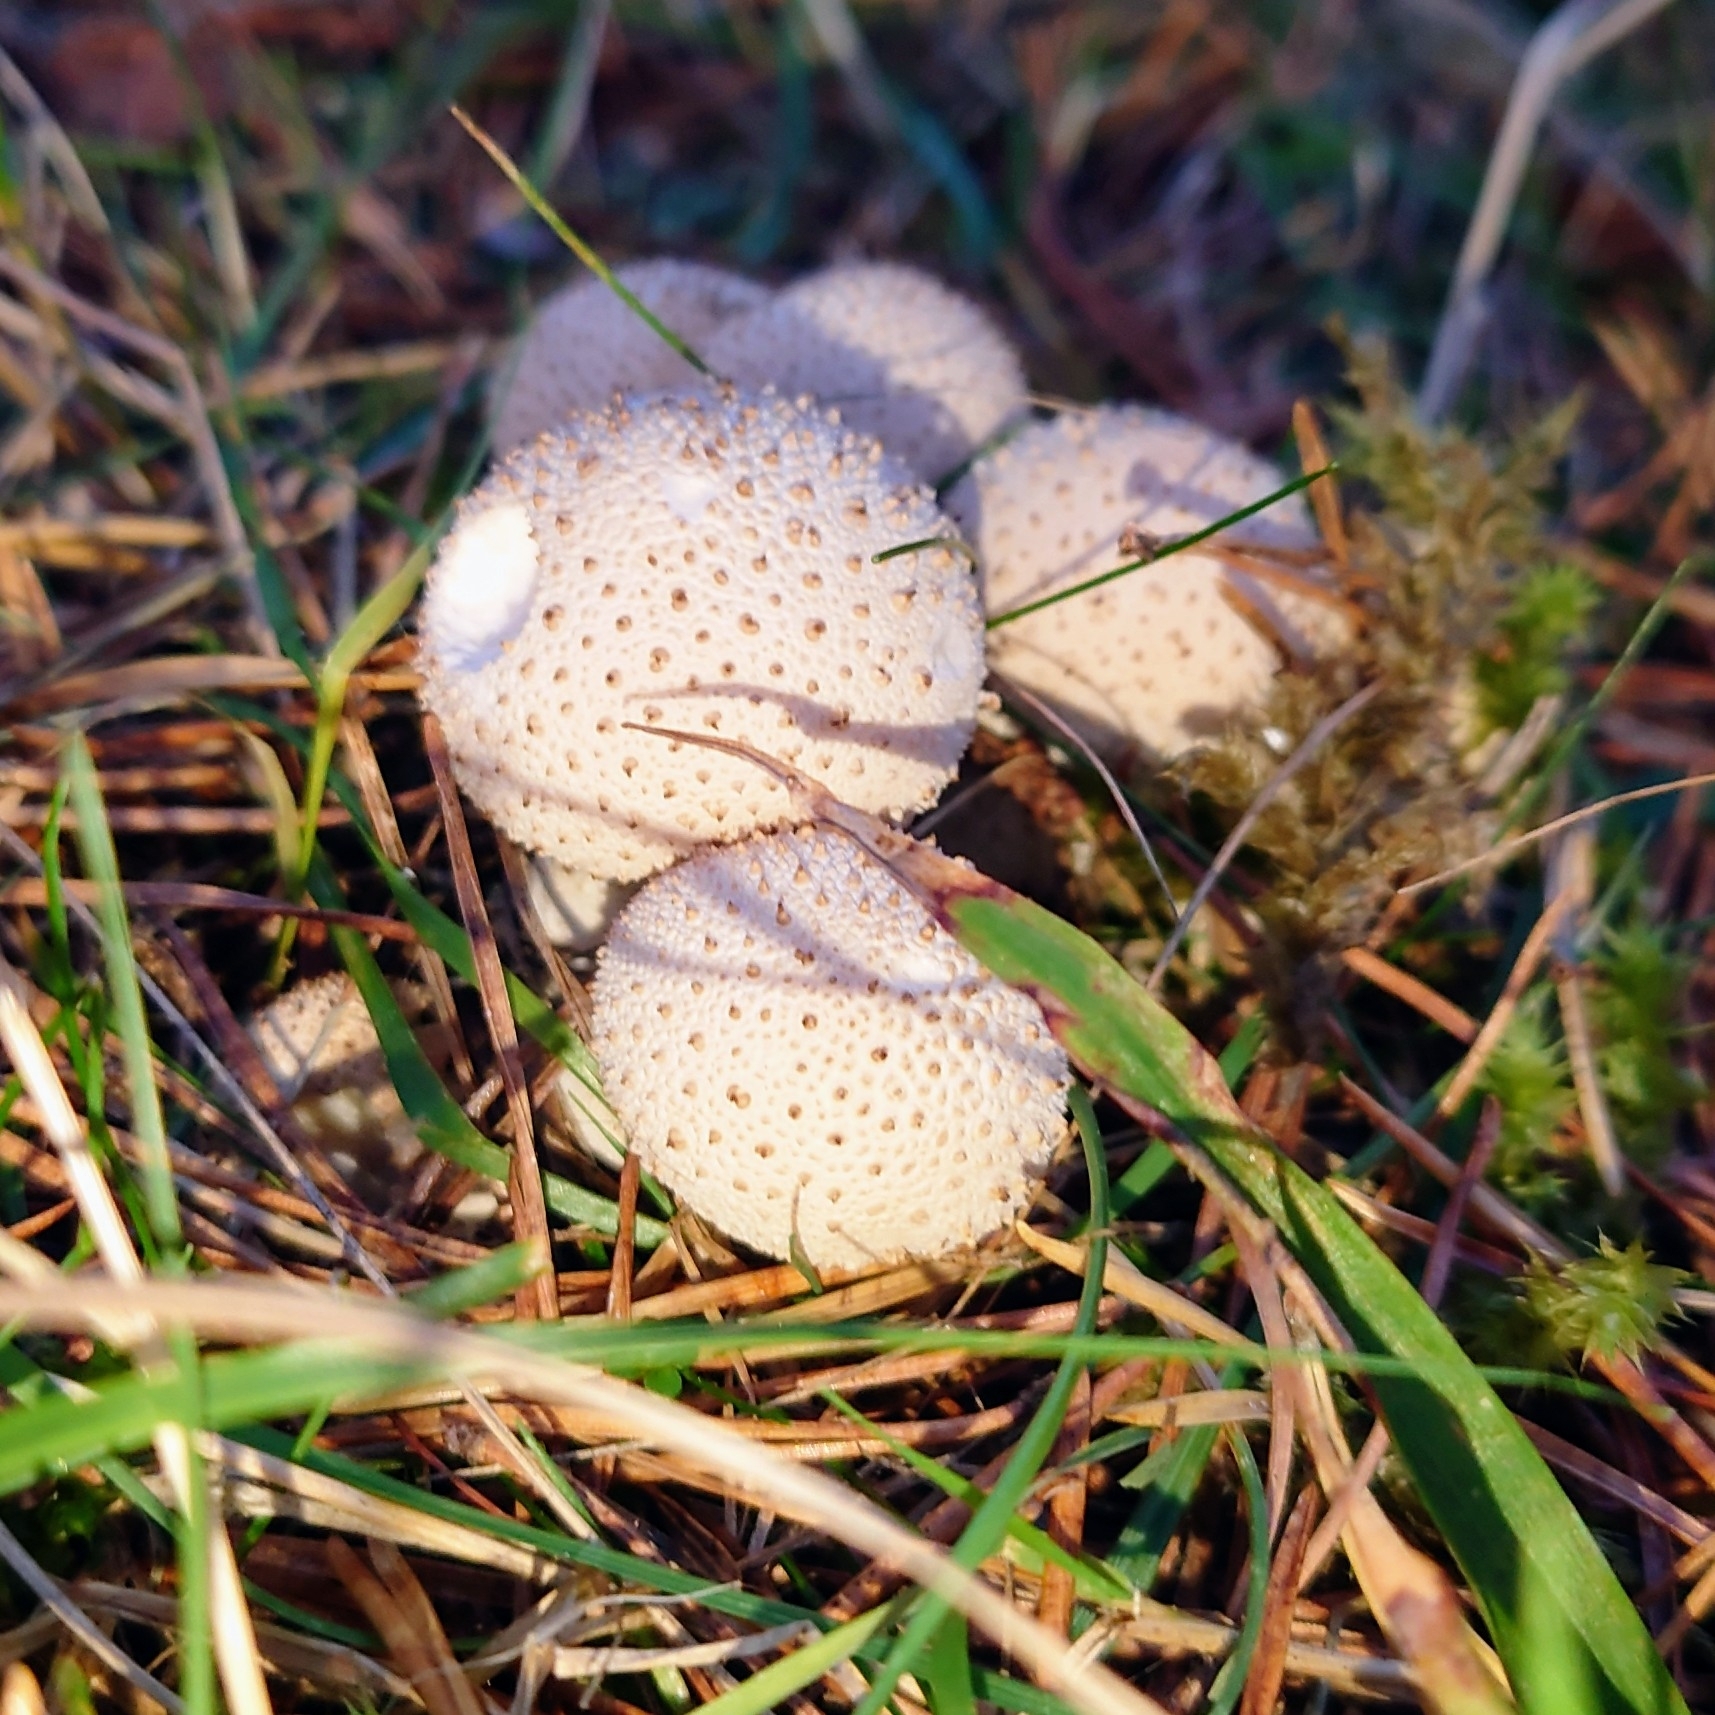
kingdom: Fungi
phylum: Basidiomycota
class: Agaricomycetes
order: Agaricales
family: Lycoperdaceae
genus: Lycoperdon
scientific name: Lycoperdon perlatum
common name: Common puffball
